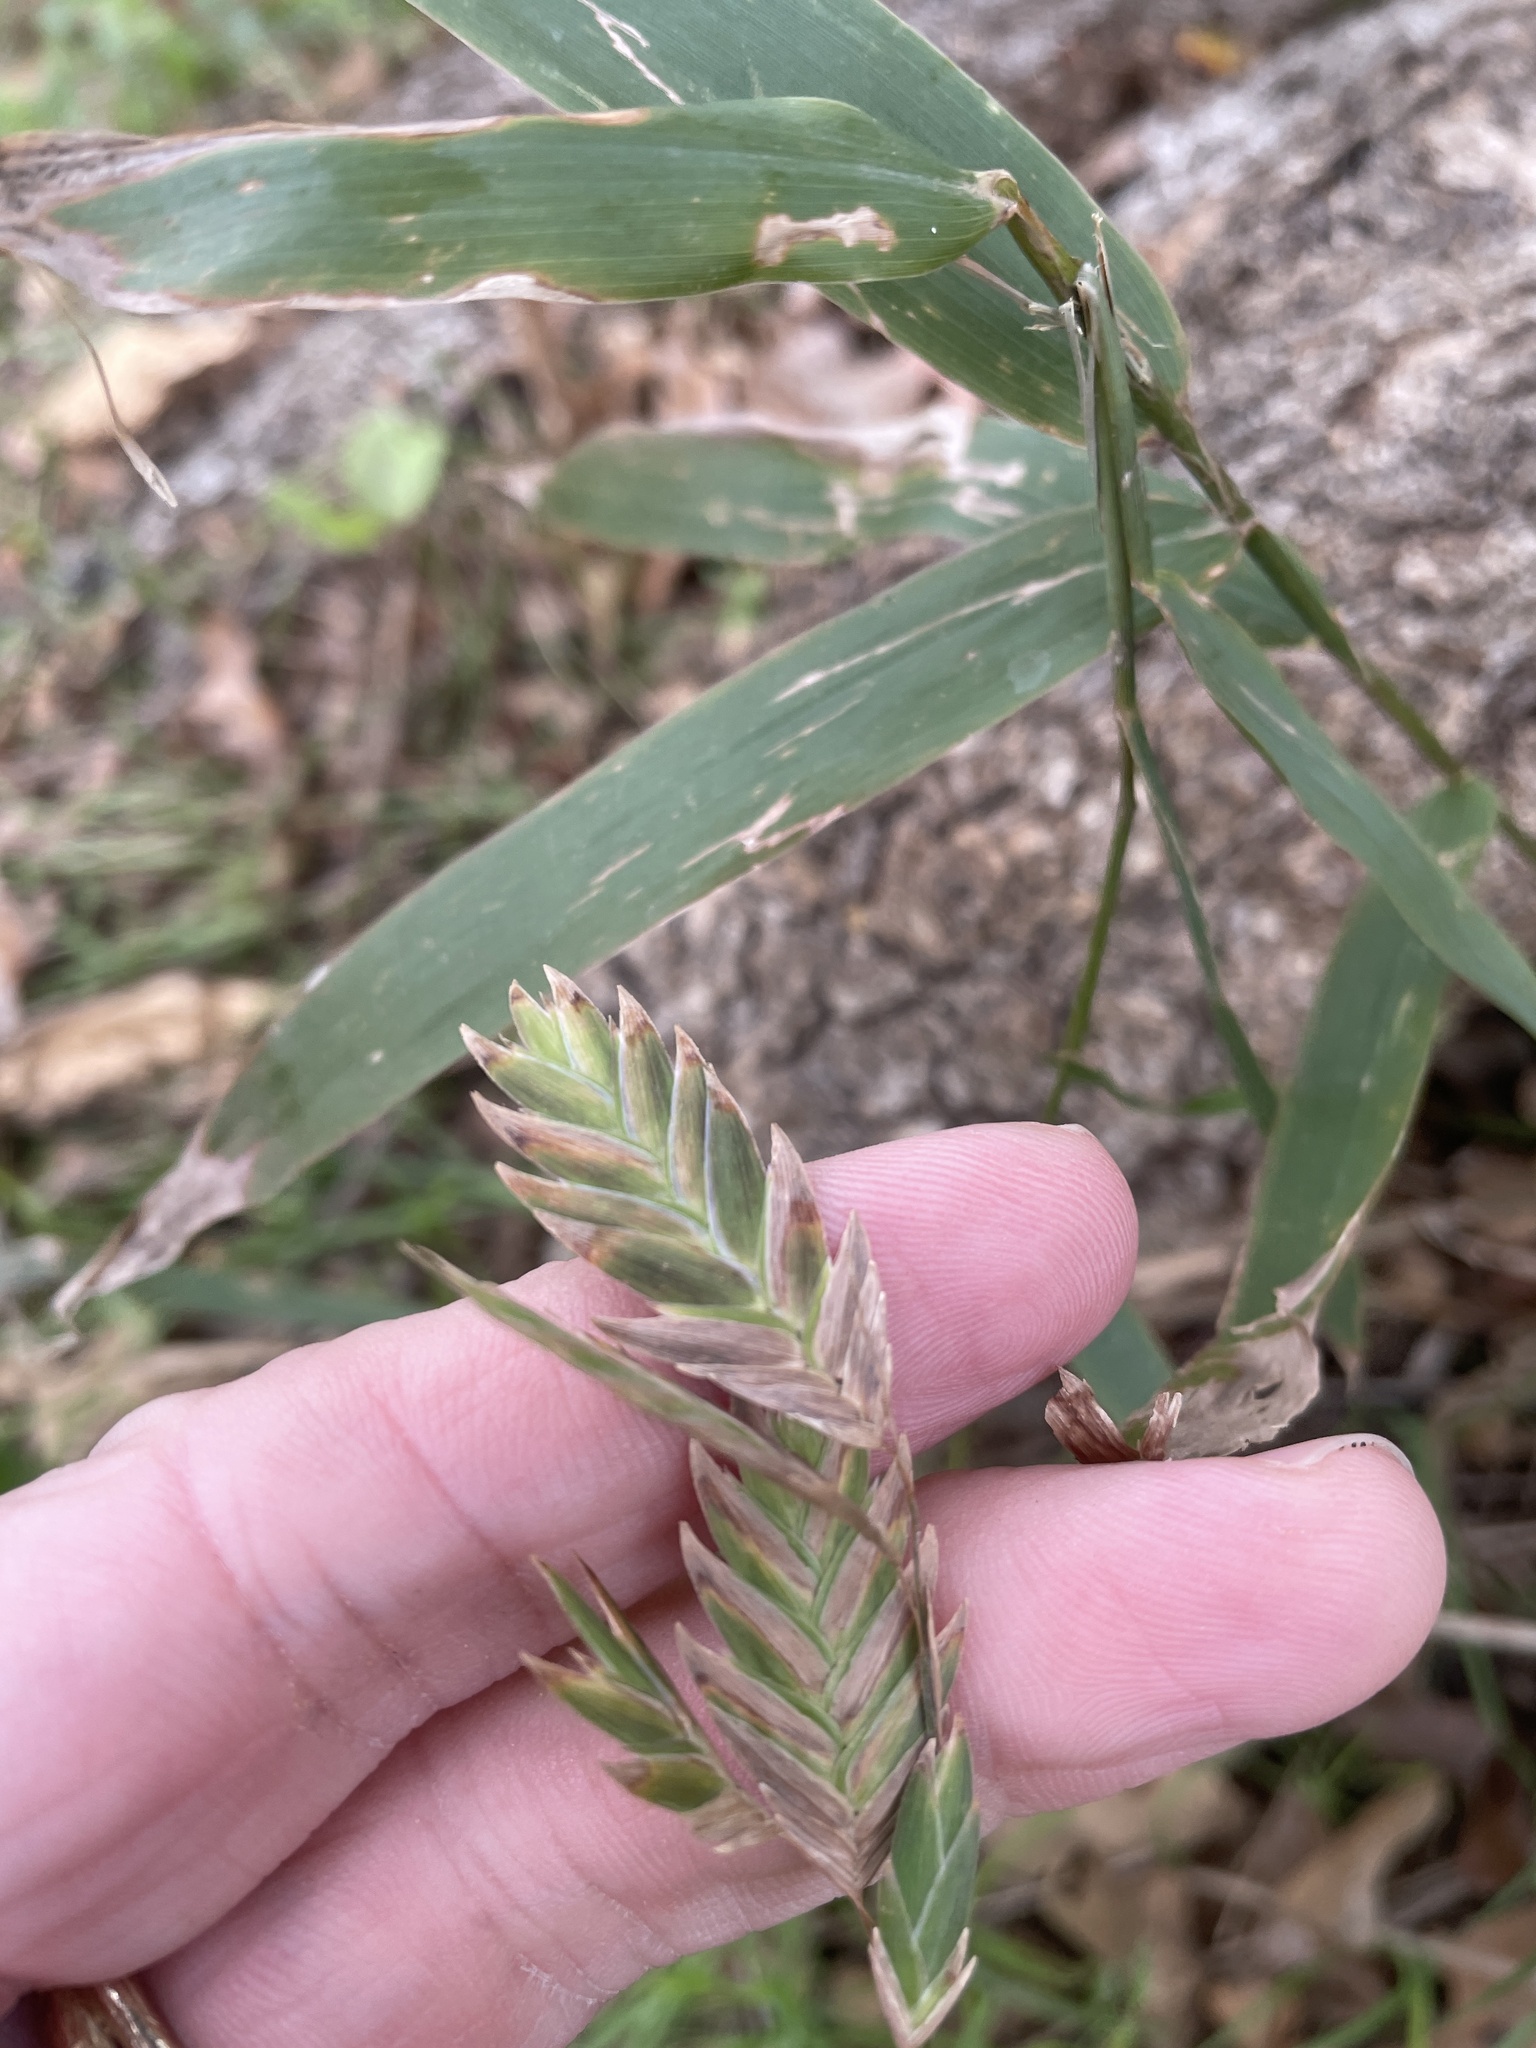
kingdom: Plantae
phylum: Tracheophyta
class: Liliopsida
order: Poales
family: Poaceae
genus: Chasmanthium
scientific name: Chasmanthium latifolium
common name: Broad-leaved chasmanthium
